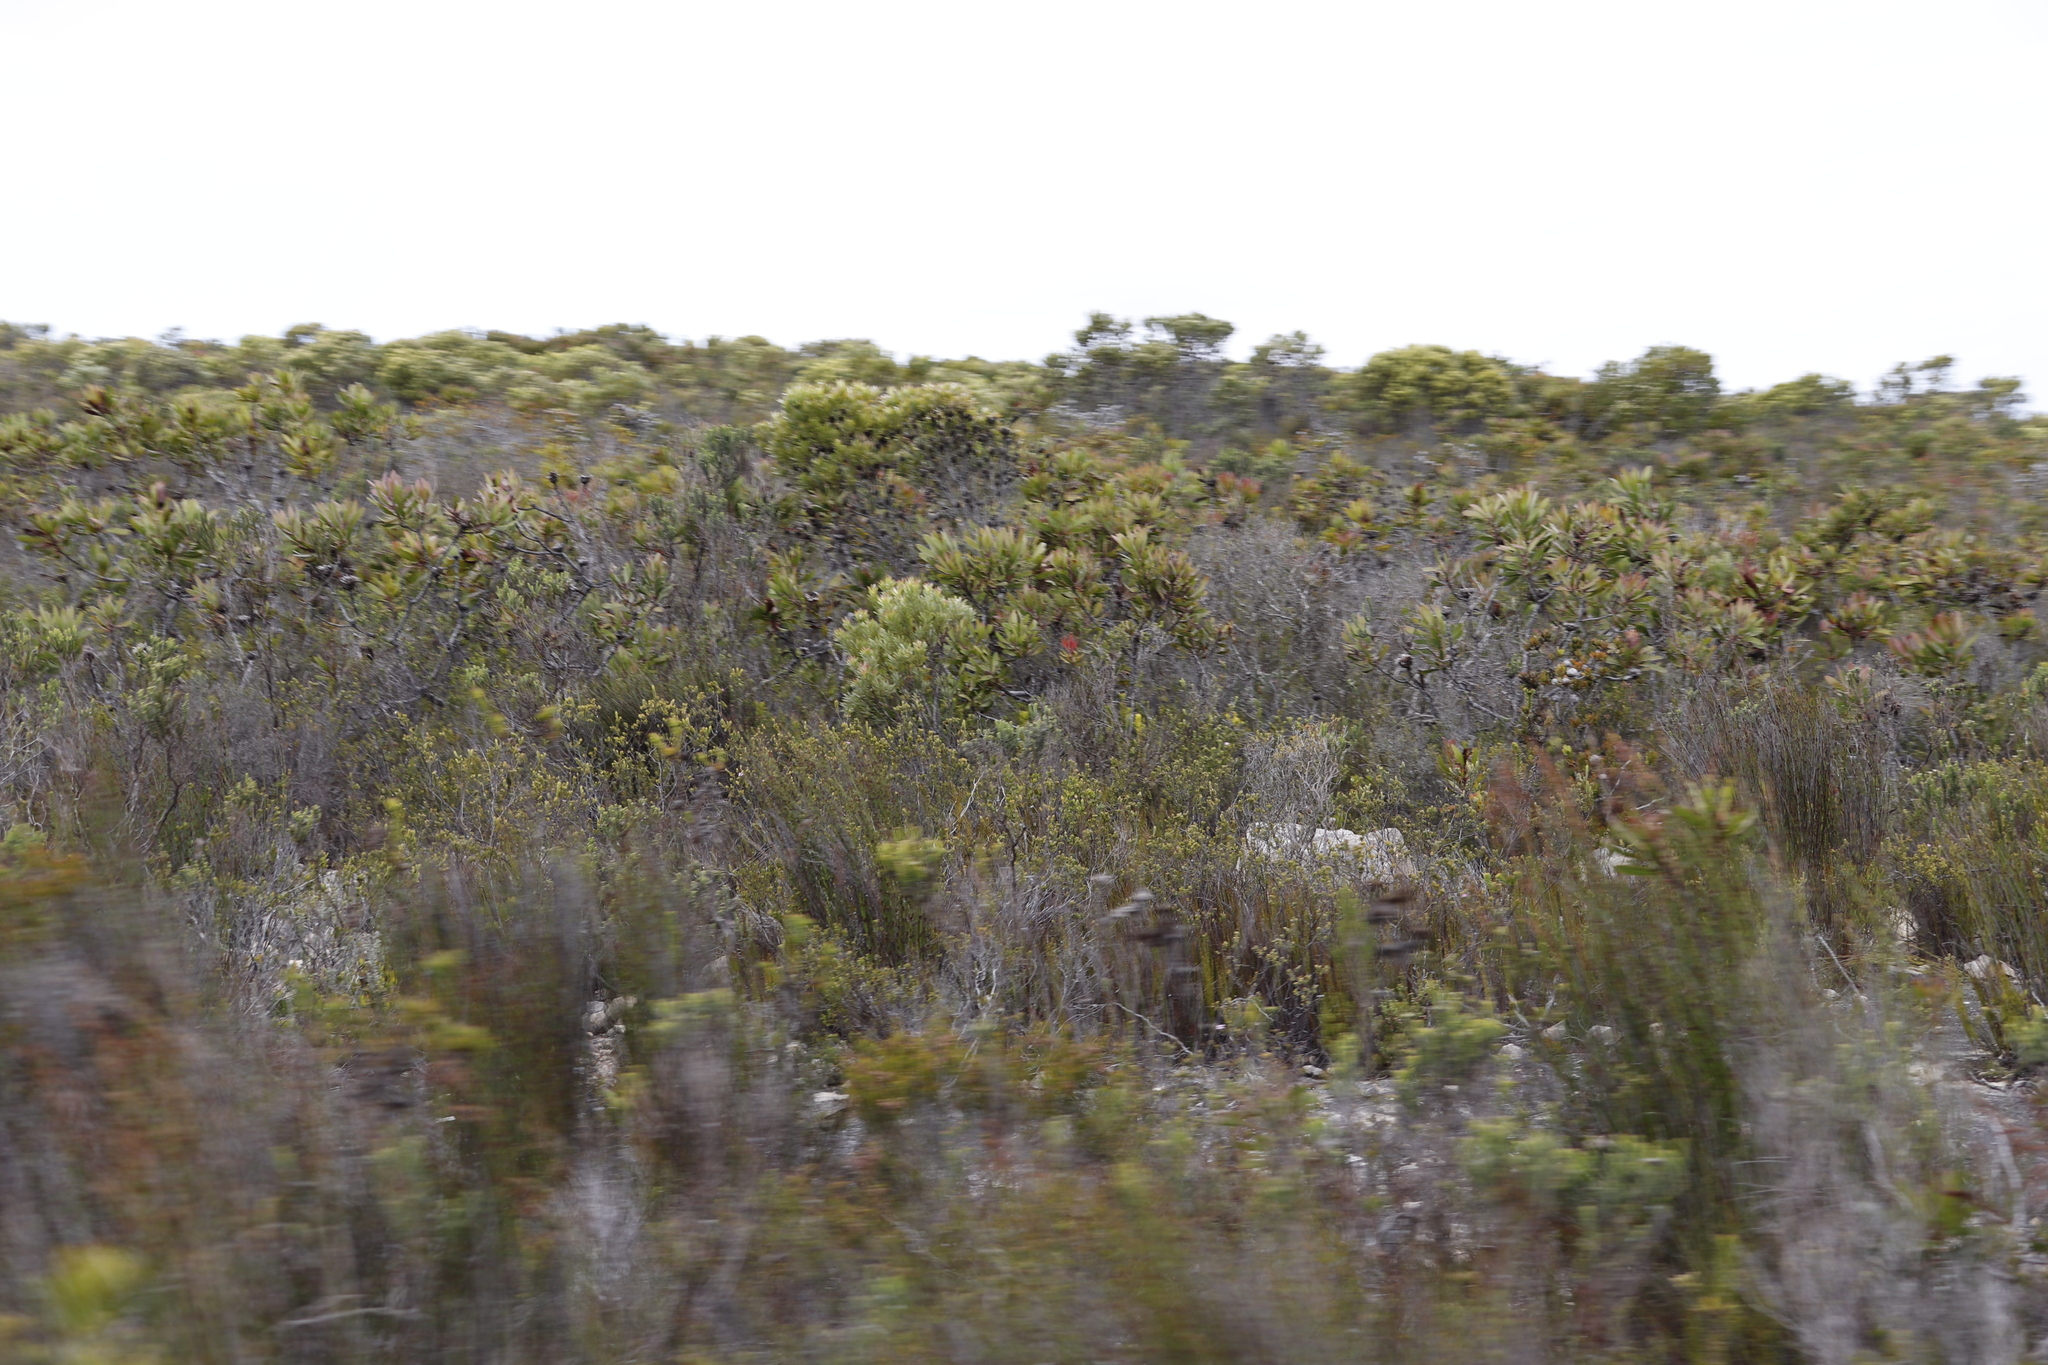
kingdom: Plantae
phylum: Tracheophyta
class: Magnoliopsida
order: Proteales
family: Proteaceae
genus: Protea
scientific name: Protea obtusifolia
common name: Bredasdorp sugarbush
